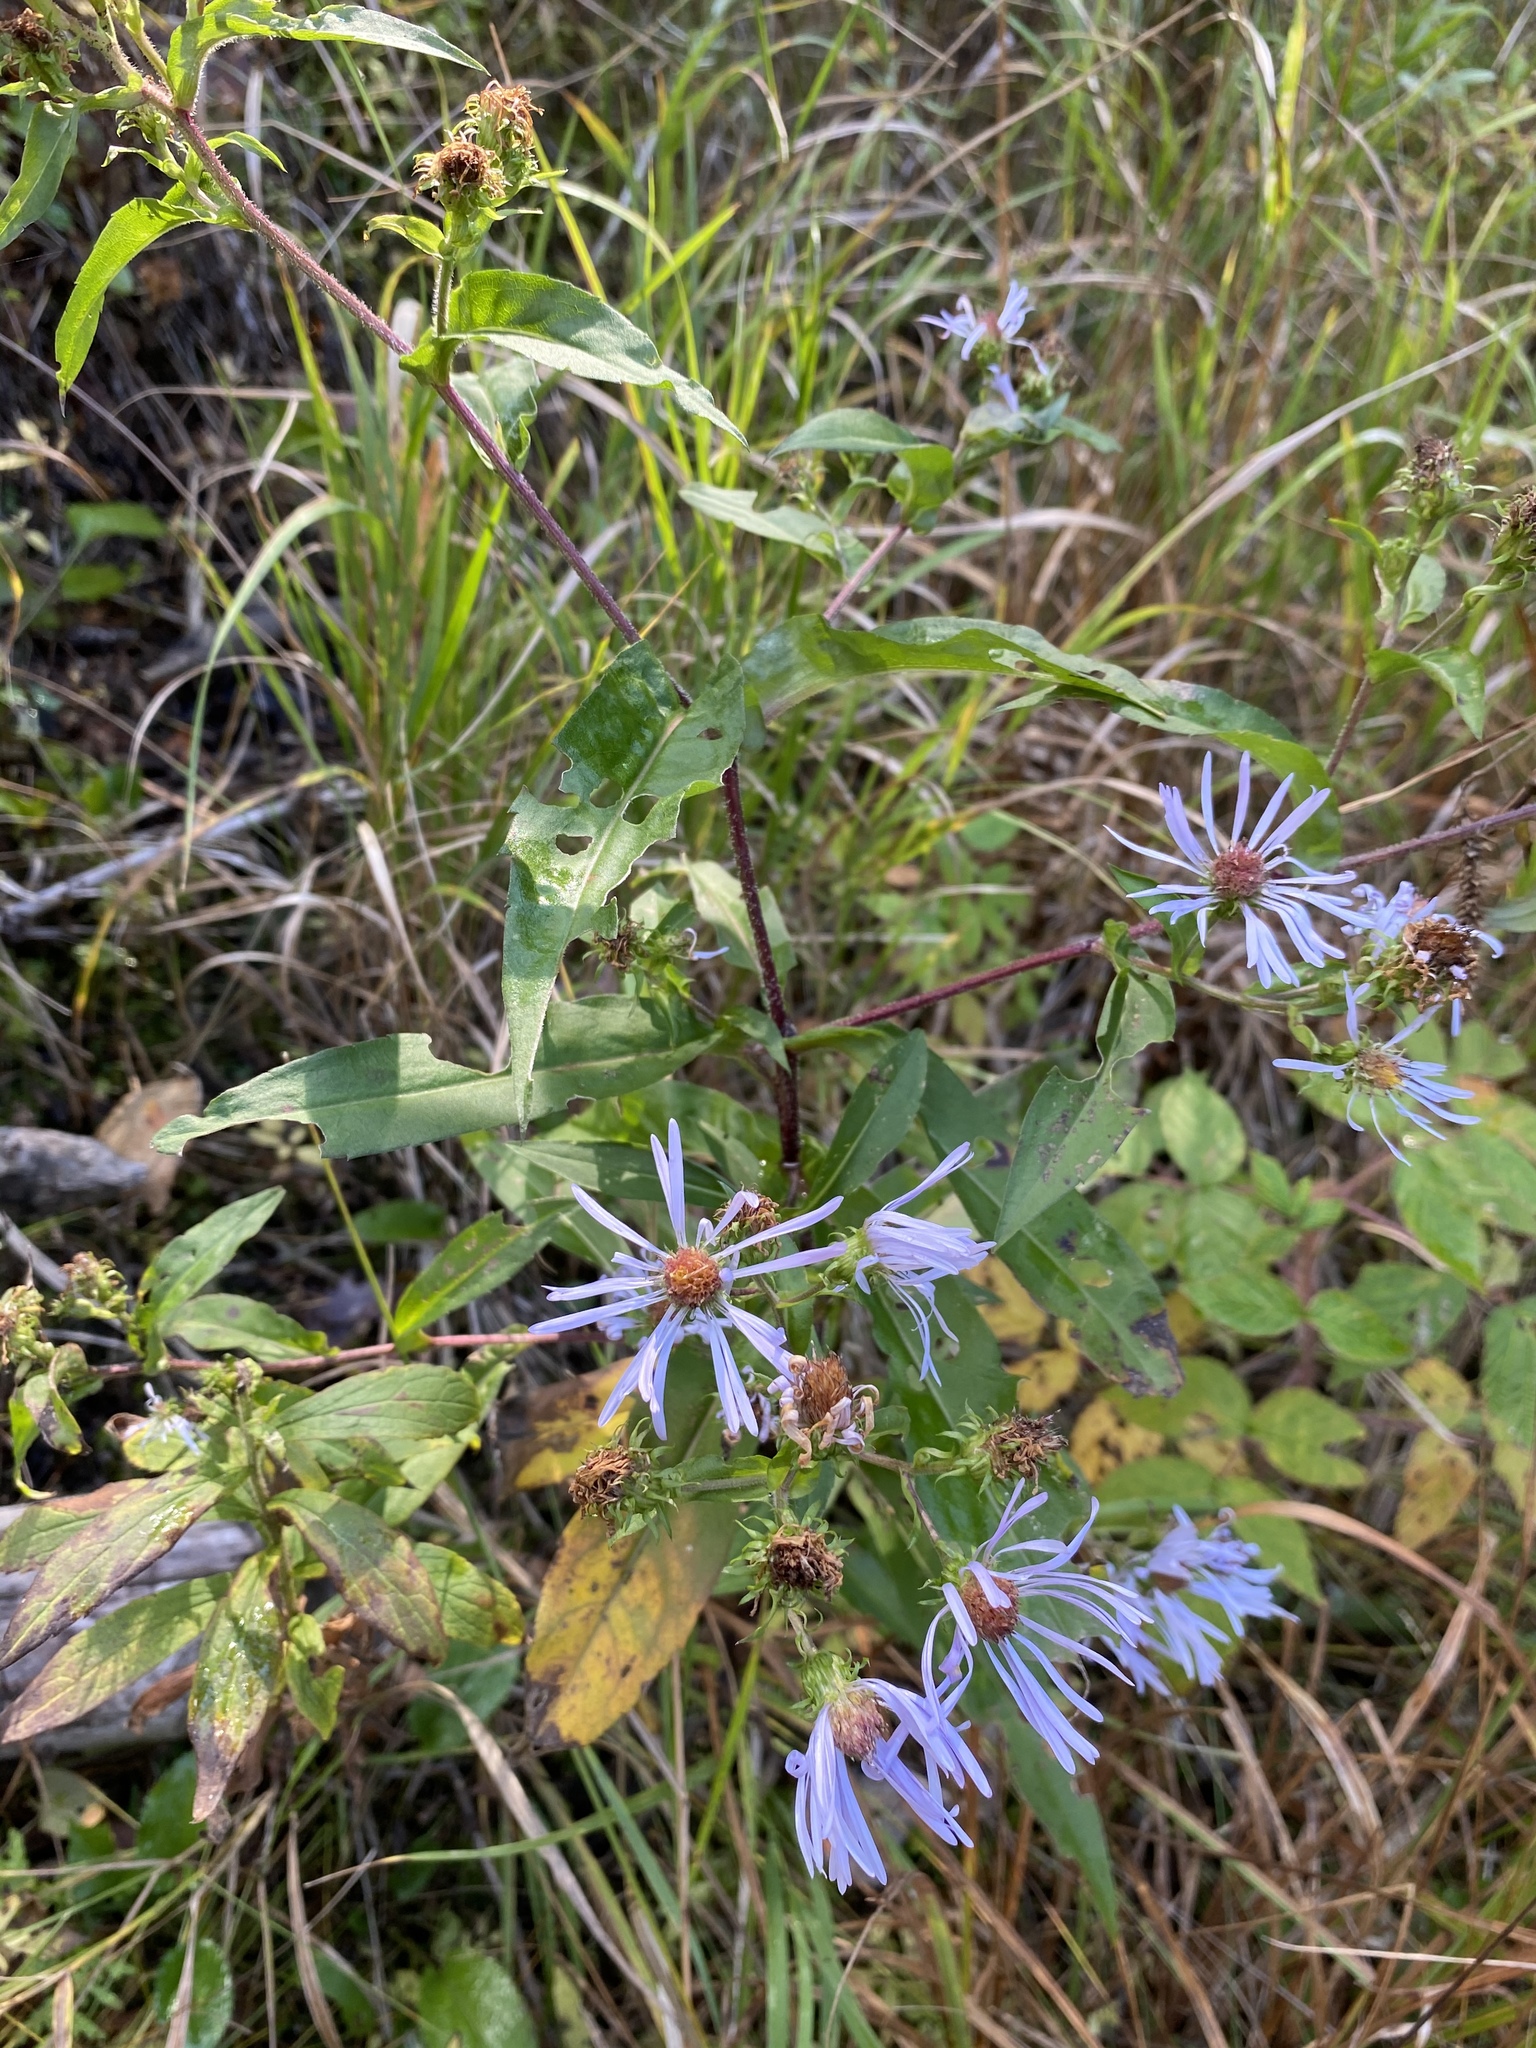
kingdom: Plantae
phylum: Tracheophyta
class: Magnoliopsida
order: Asterales
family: Asteraceae
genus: Symphyotrichum
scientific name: Symphyotrichum puniceum
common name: Bog aster
